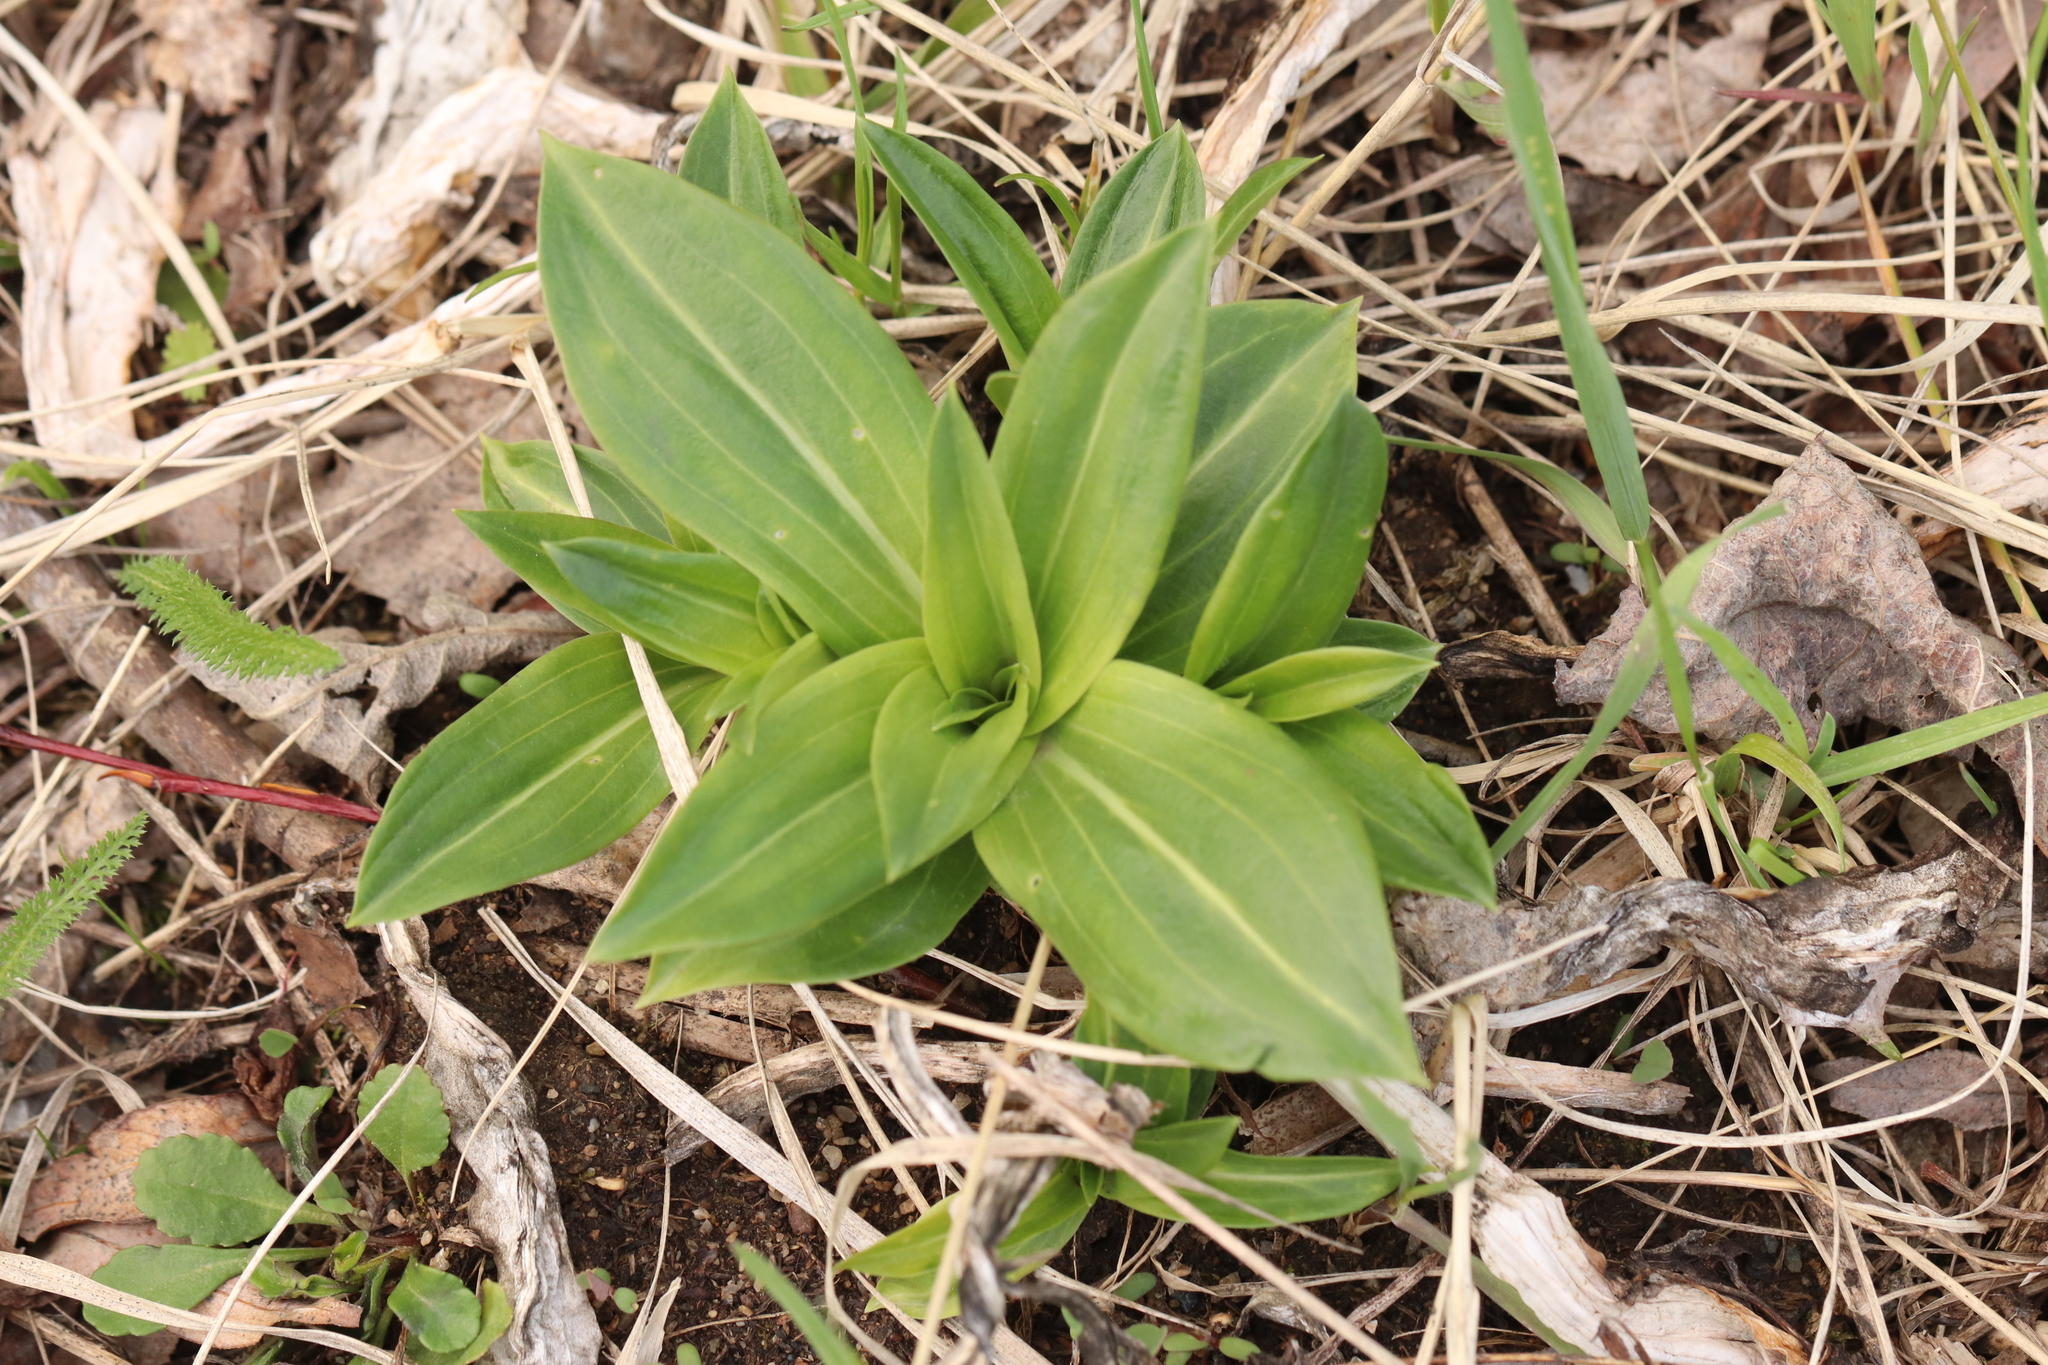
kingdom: Plantae
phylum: Tracheophyta
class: Magnoliopsida
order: Gentianales
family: Gentianaceae
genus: Gentiana
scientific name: Gentiana macrophylla
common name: Large-leaf gentian
